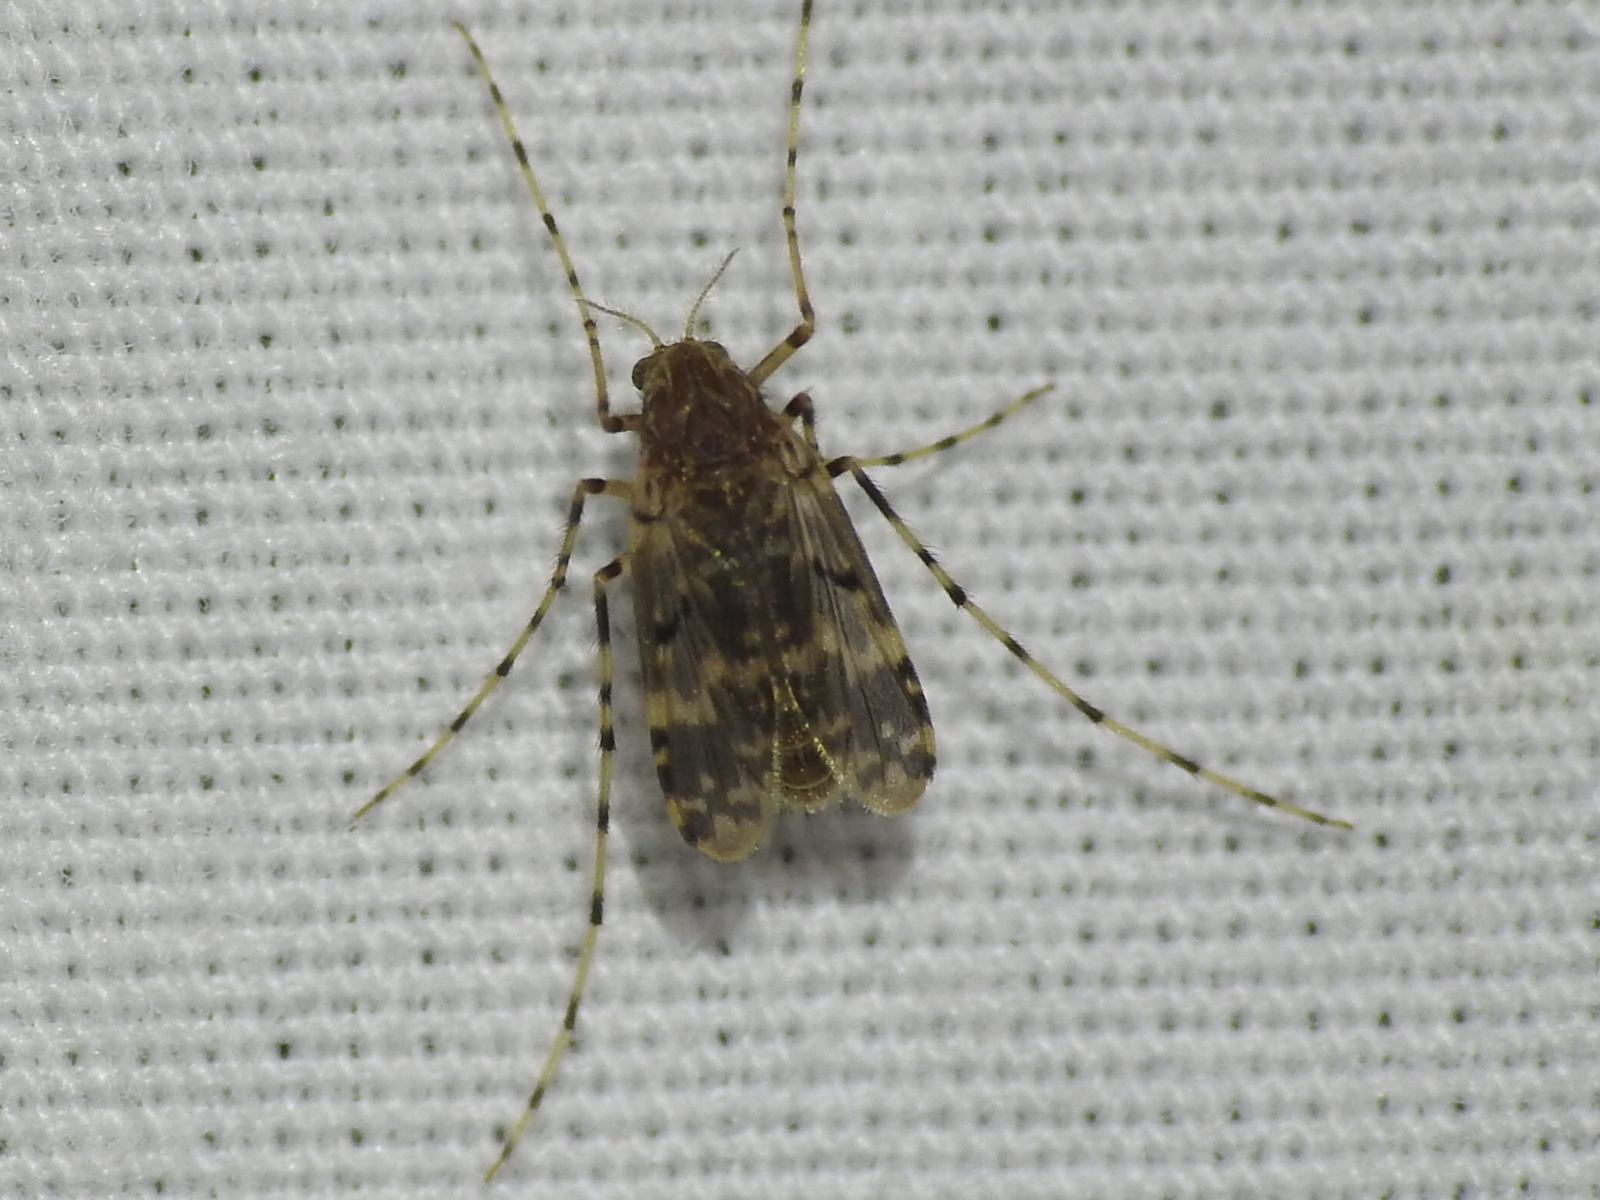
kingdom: Animalia
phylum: Arthropoda
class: Insecta
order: Diptera
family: Chironomidae
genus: Ablabesmyia
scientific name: Ablabesmyia annulata
